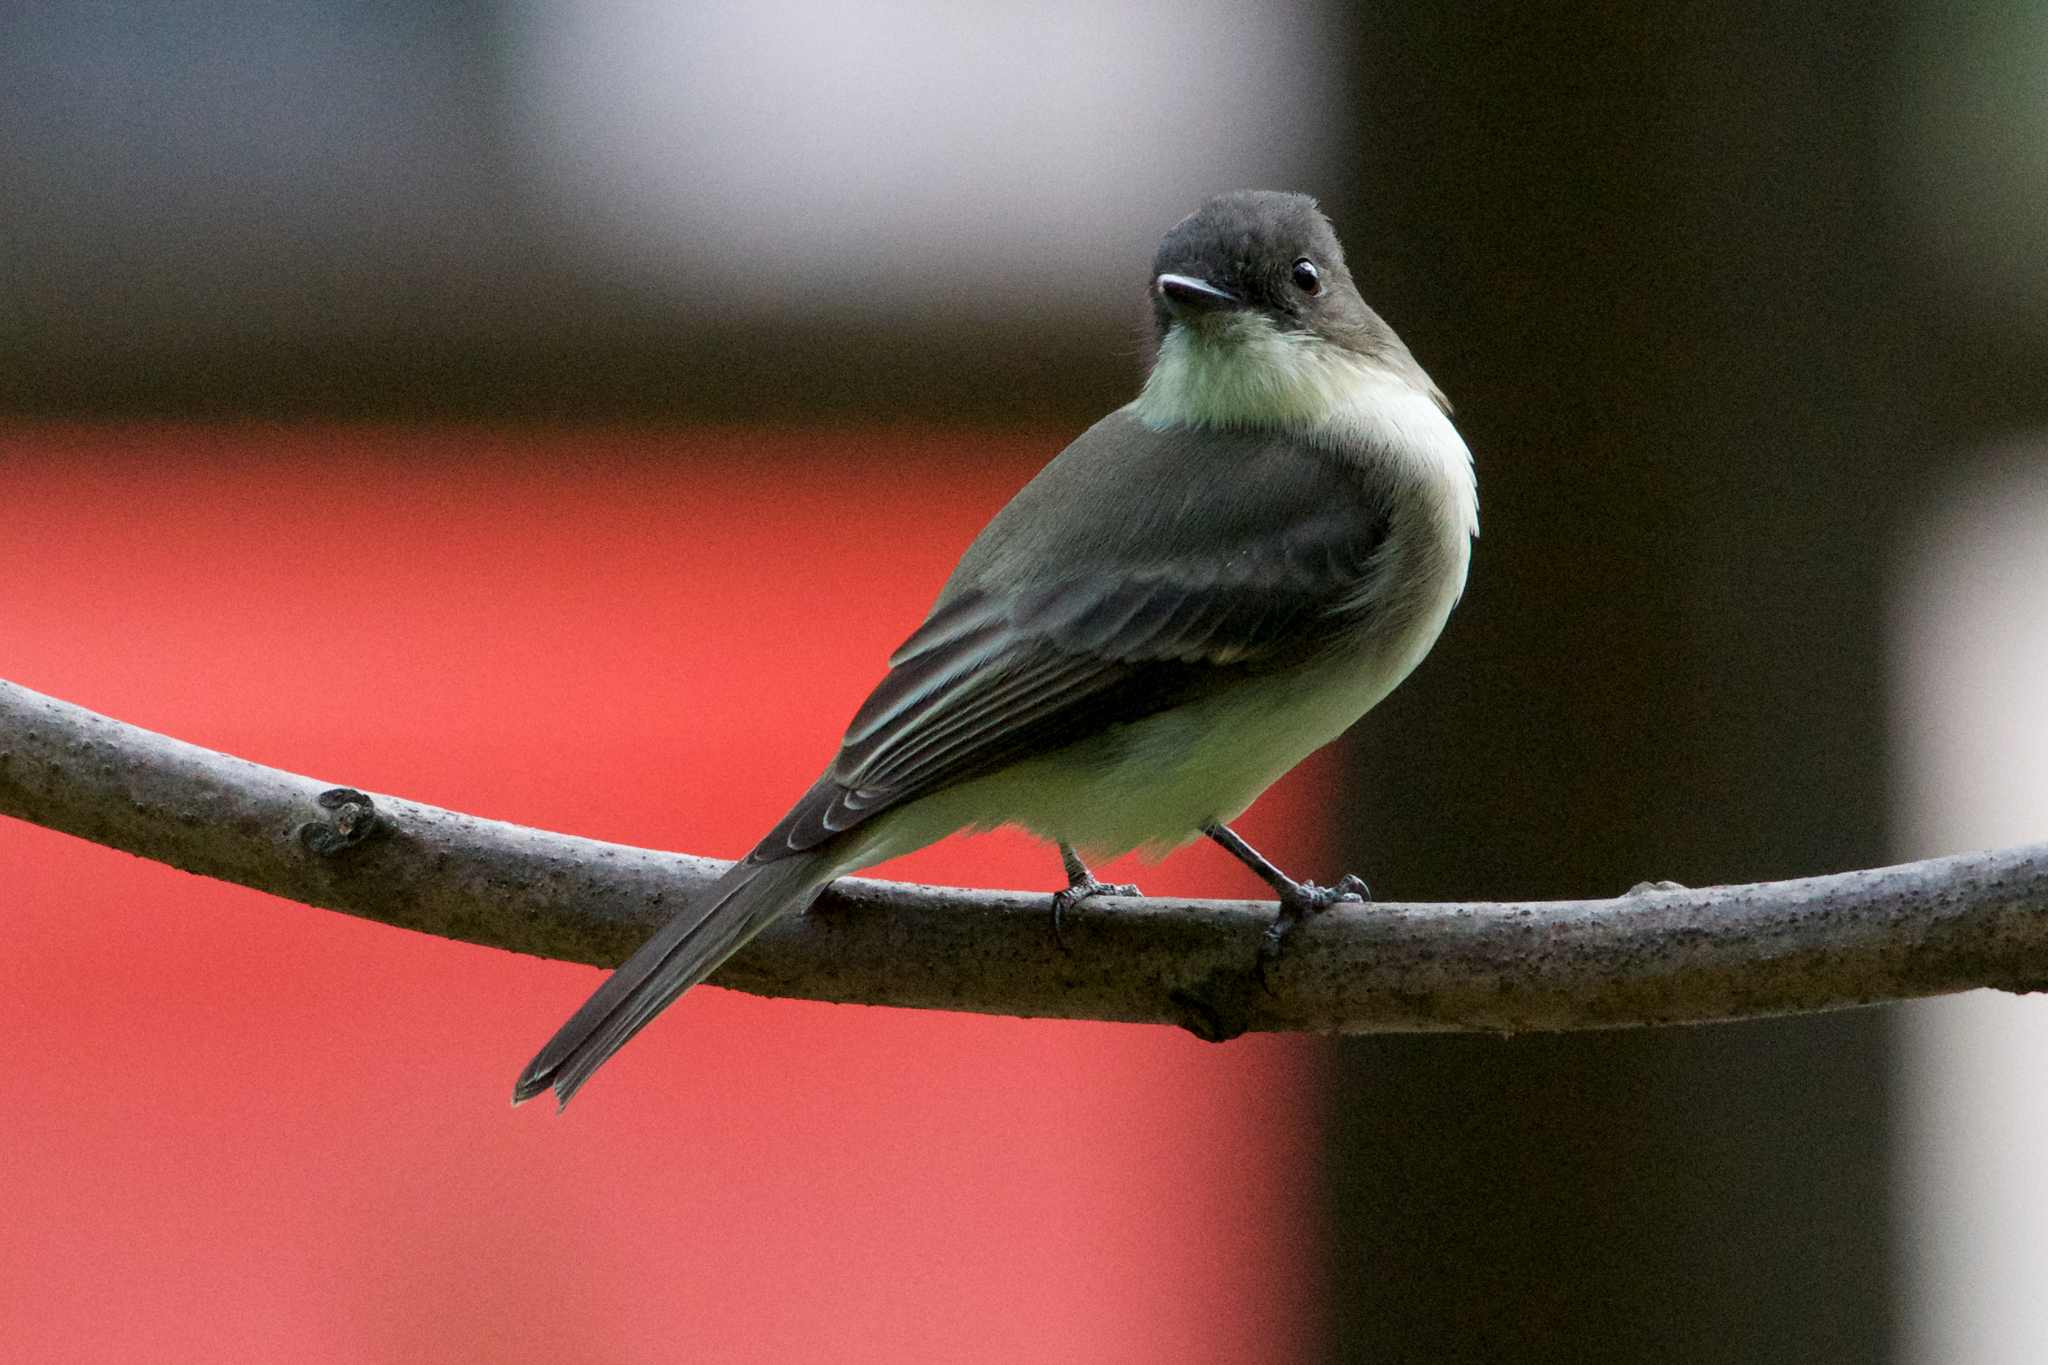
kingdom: Animalia
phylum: Chordata
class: Aves
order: Passeriformes
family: Tyrannidae
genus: Sayornis
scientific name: Sayornis phoebe
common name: Eastern phoebe
